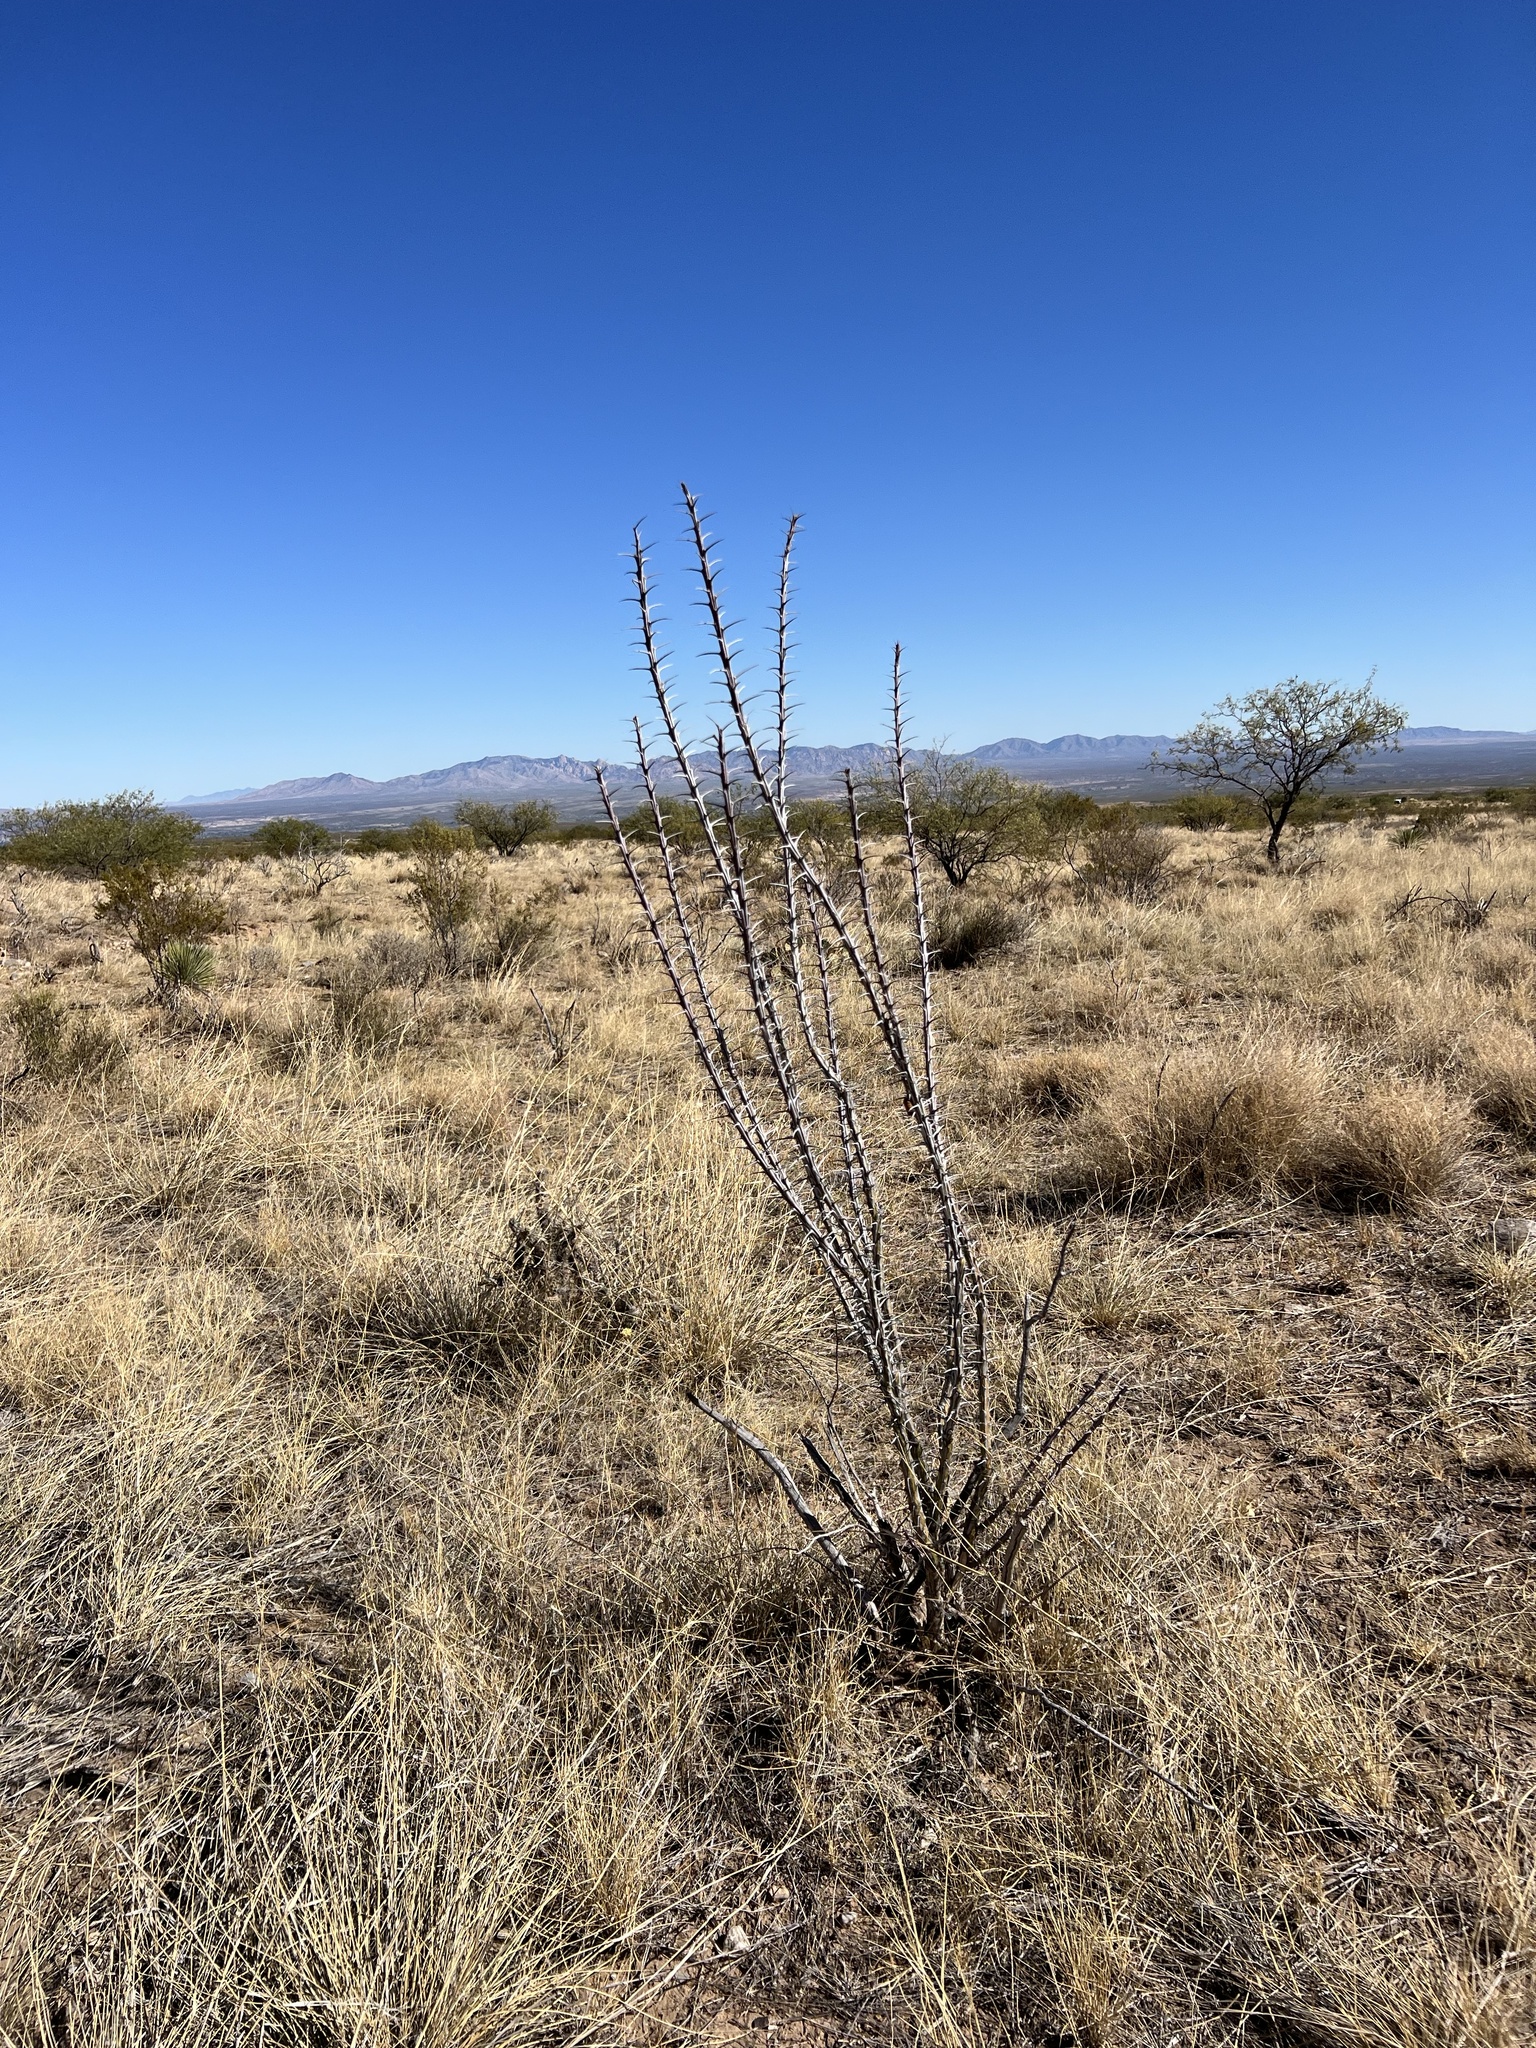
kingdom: Plantae
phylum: Tracheophyta
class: Magnoliopsida
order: Ericales
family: Fouquieriaceae
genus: Fouquieria
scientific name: Fouquieria splendens
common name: Vine-cactus
